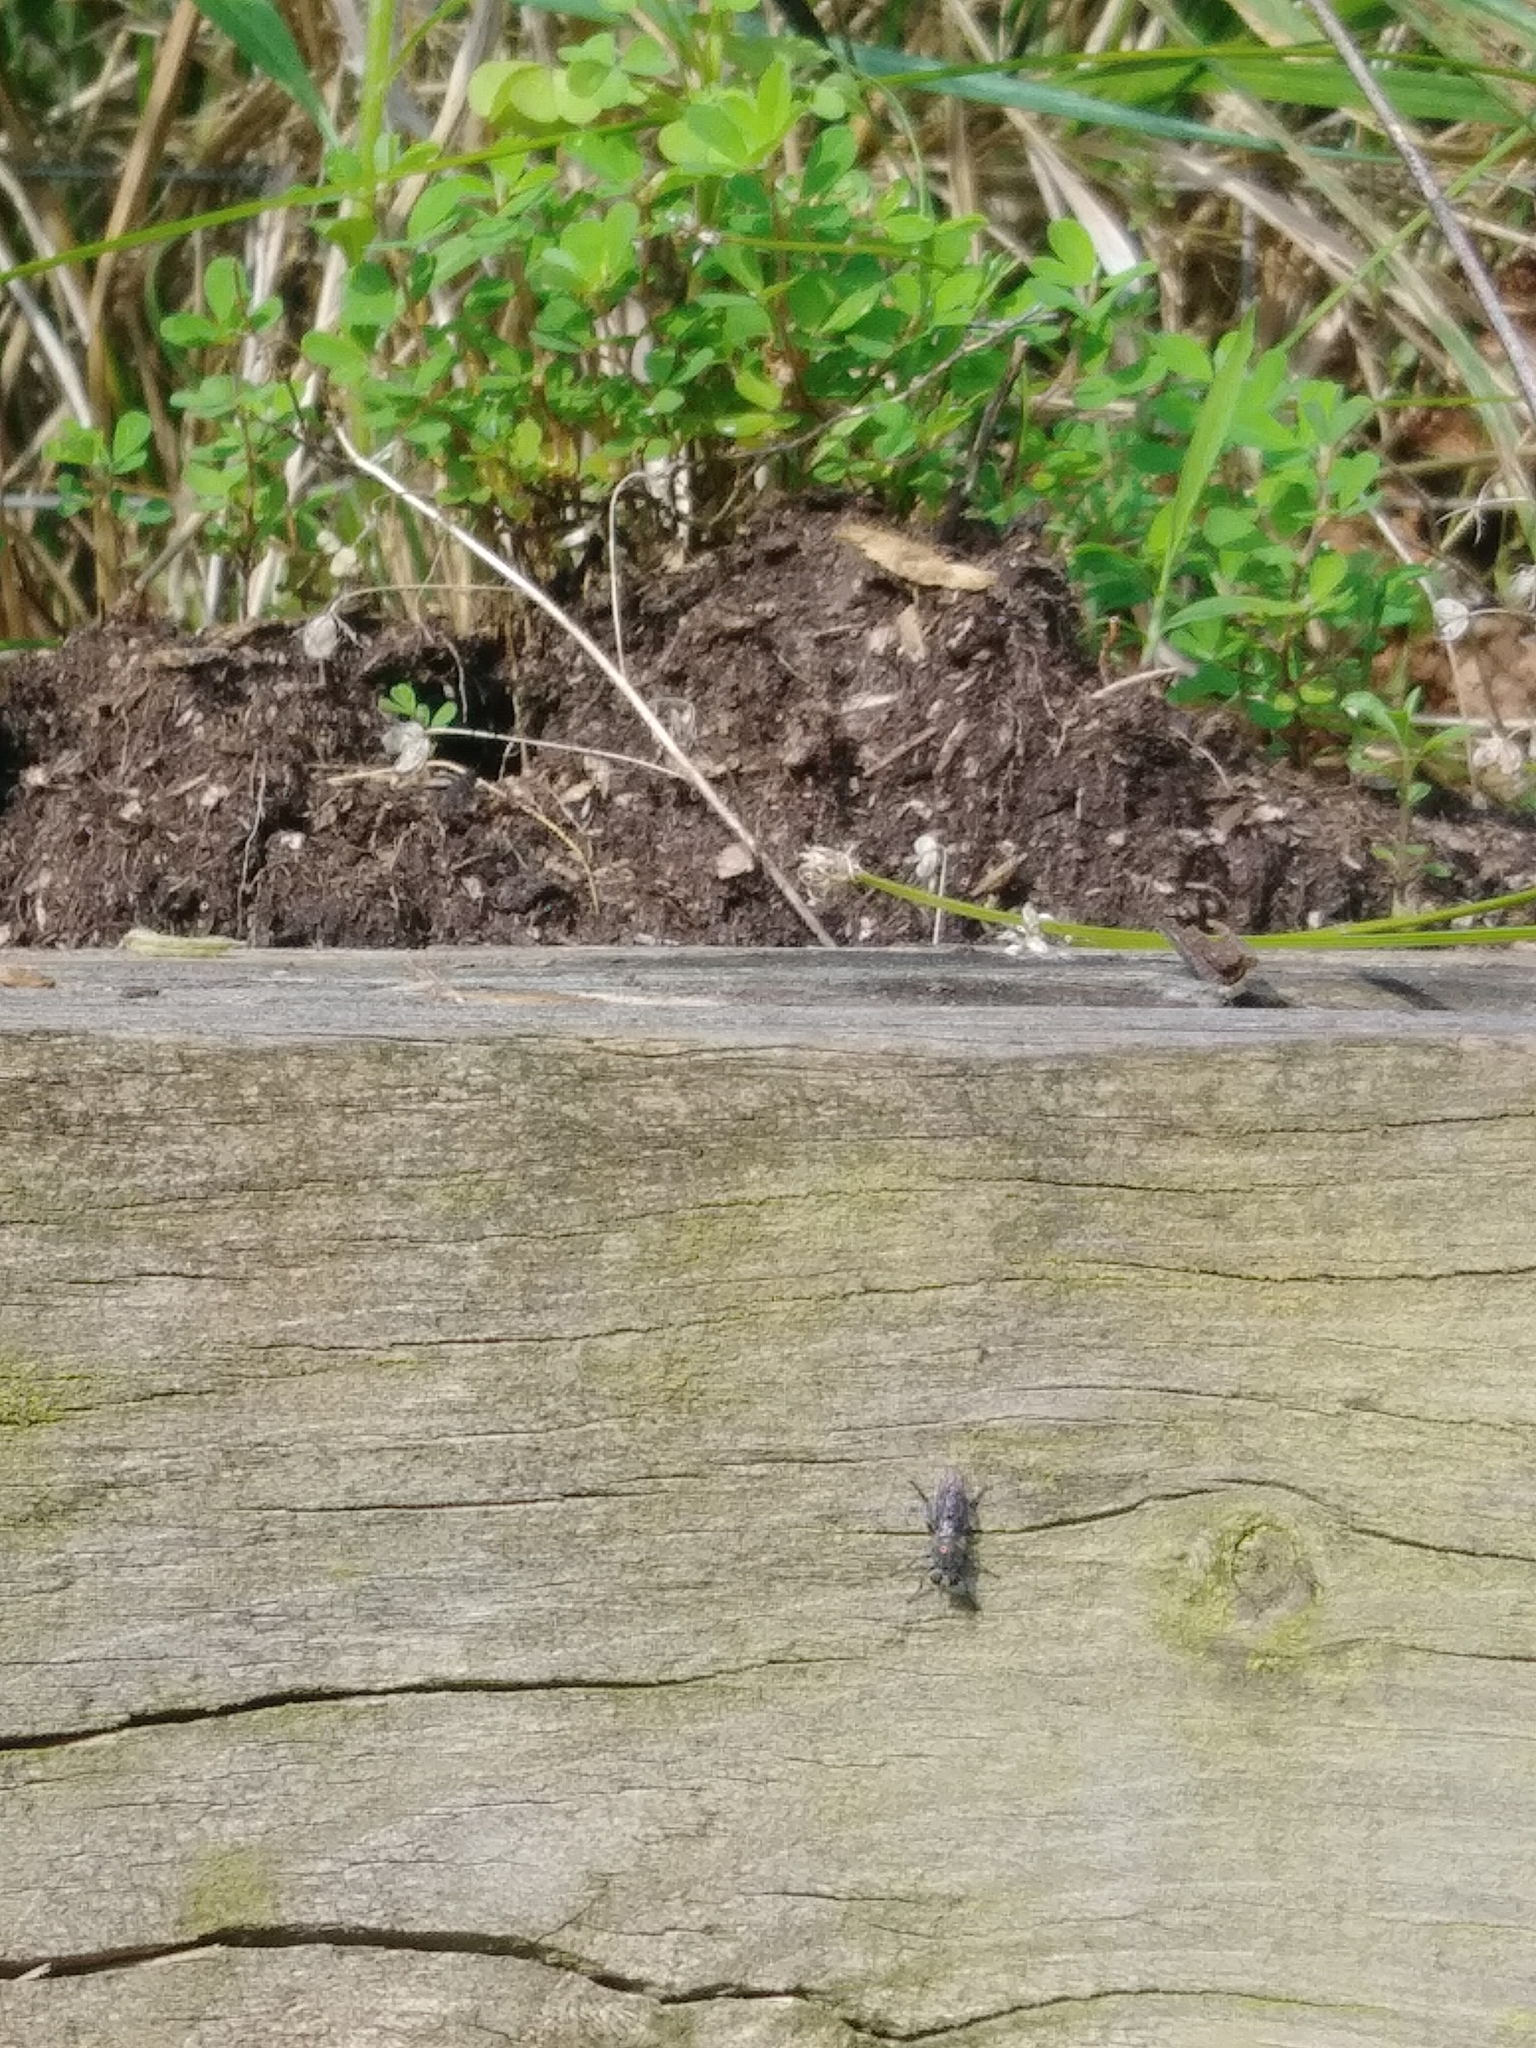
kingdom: Animalia
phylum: Arthropoda
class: Insecta
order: Diptera
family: Asilidae
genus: Atomosia
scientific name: Atomosia puella
